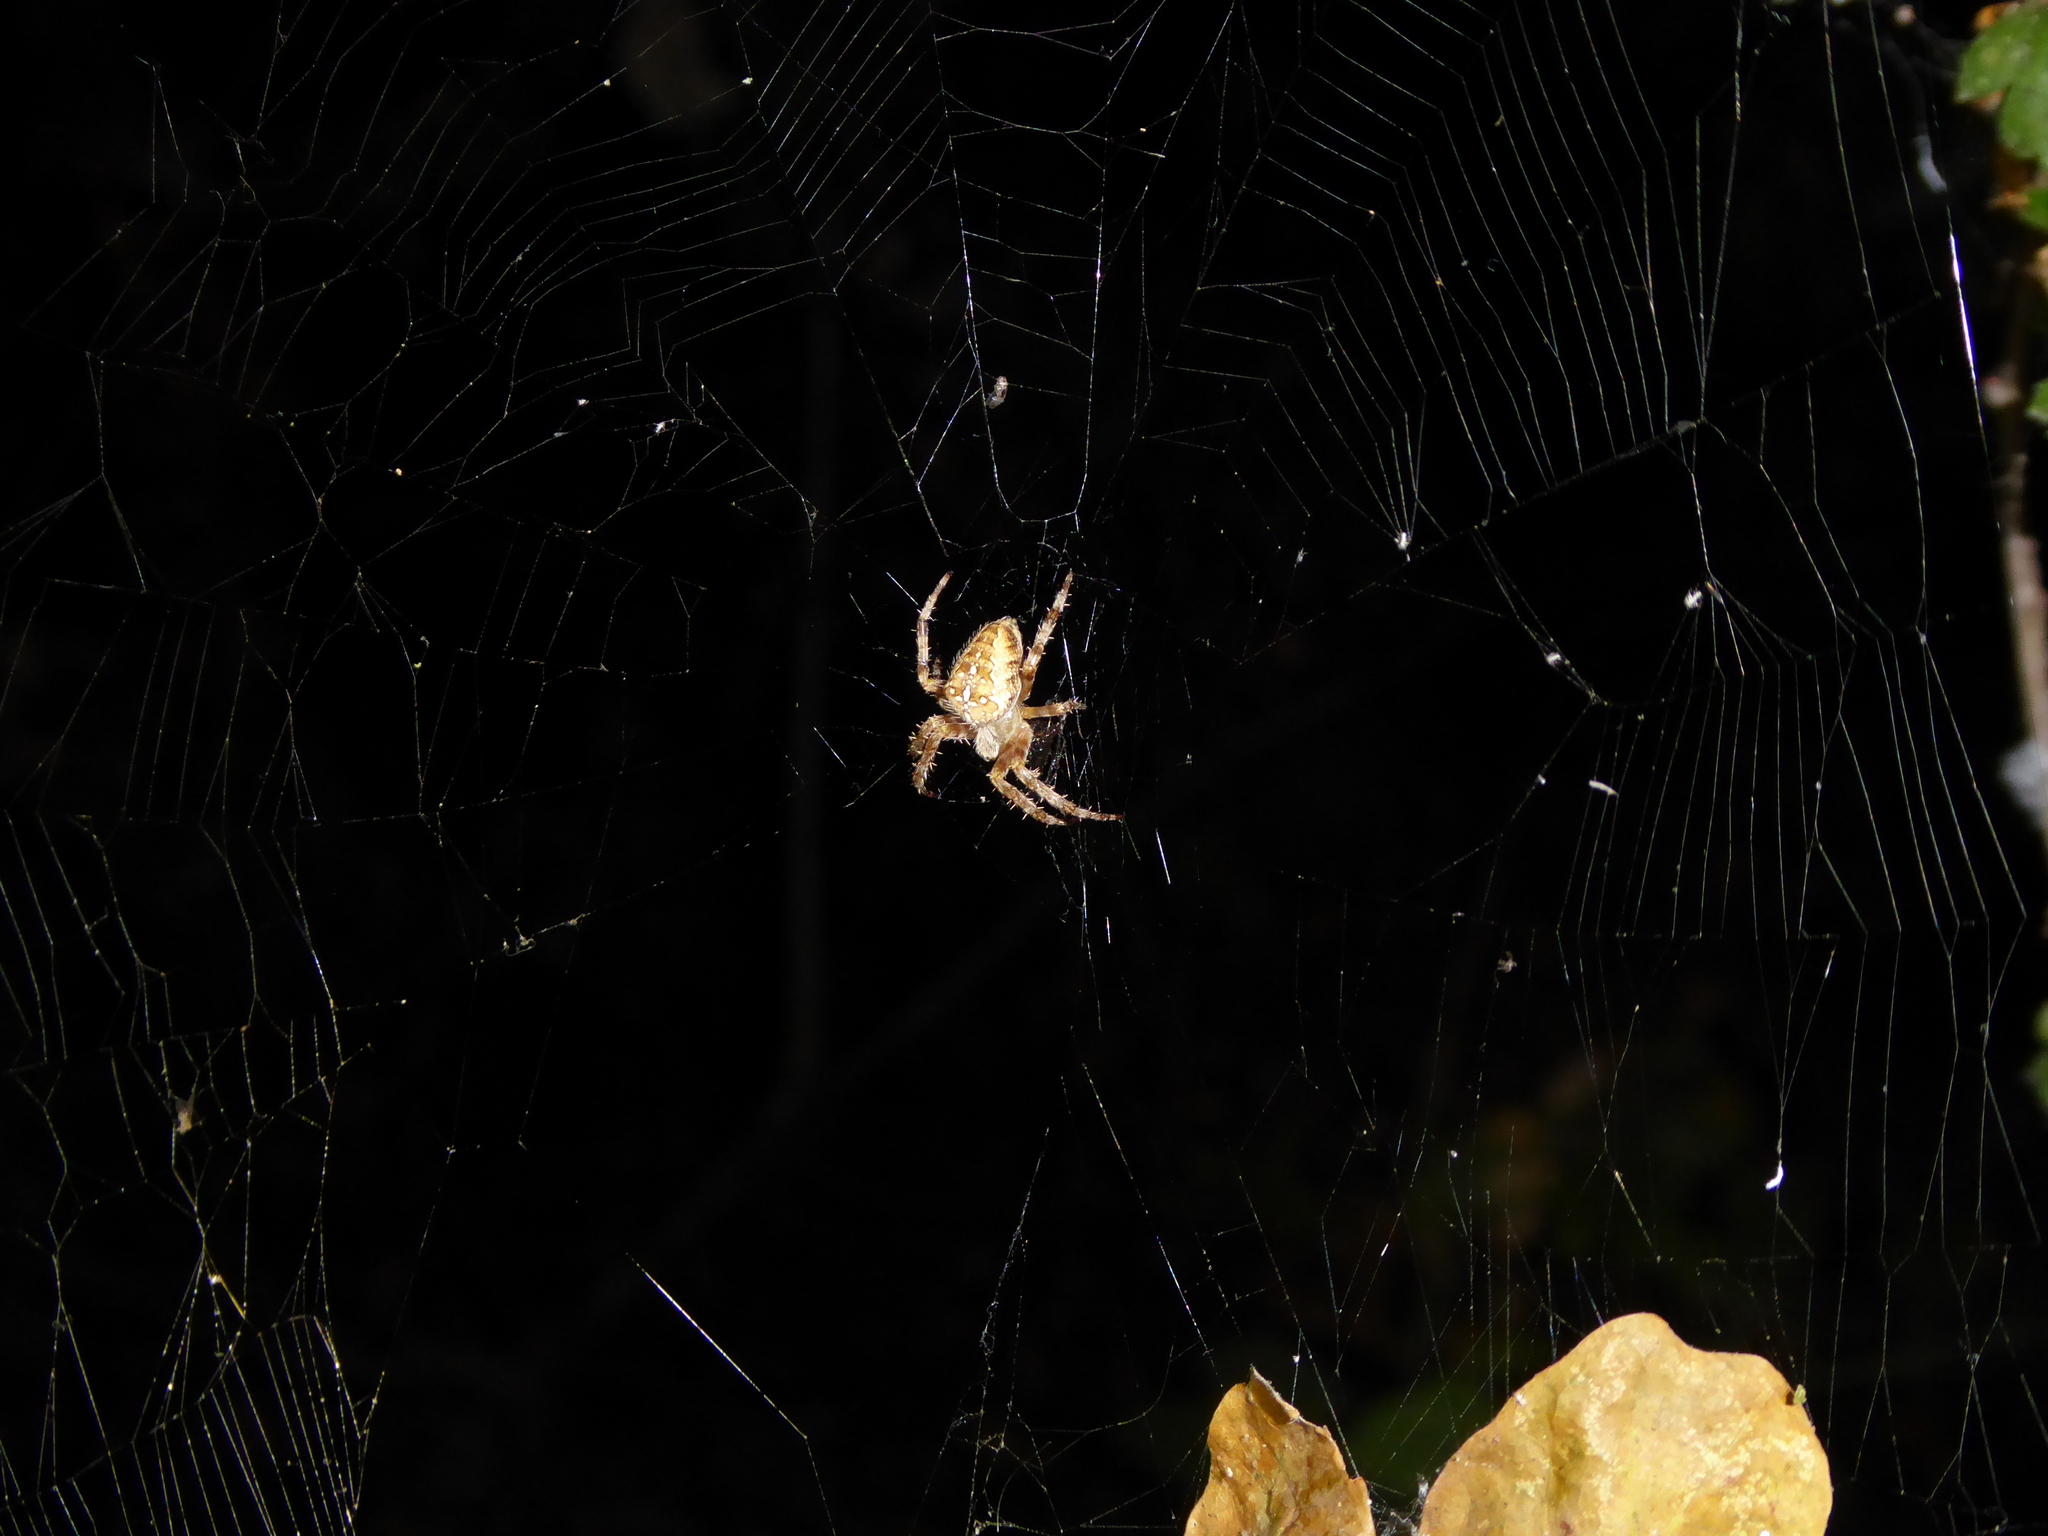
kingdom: Animalia
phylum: Arthropoda
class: Arachnida
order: Araneae
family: Araneidae
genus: Araneus
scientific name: Araneus diadematus
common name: Cross orbweaver
